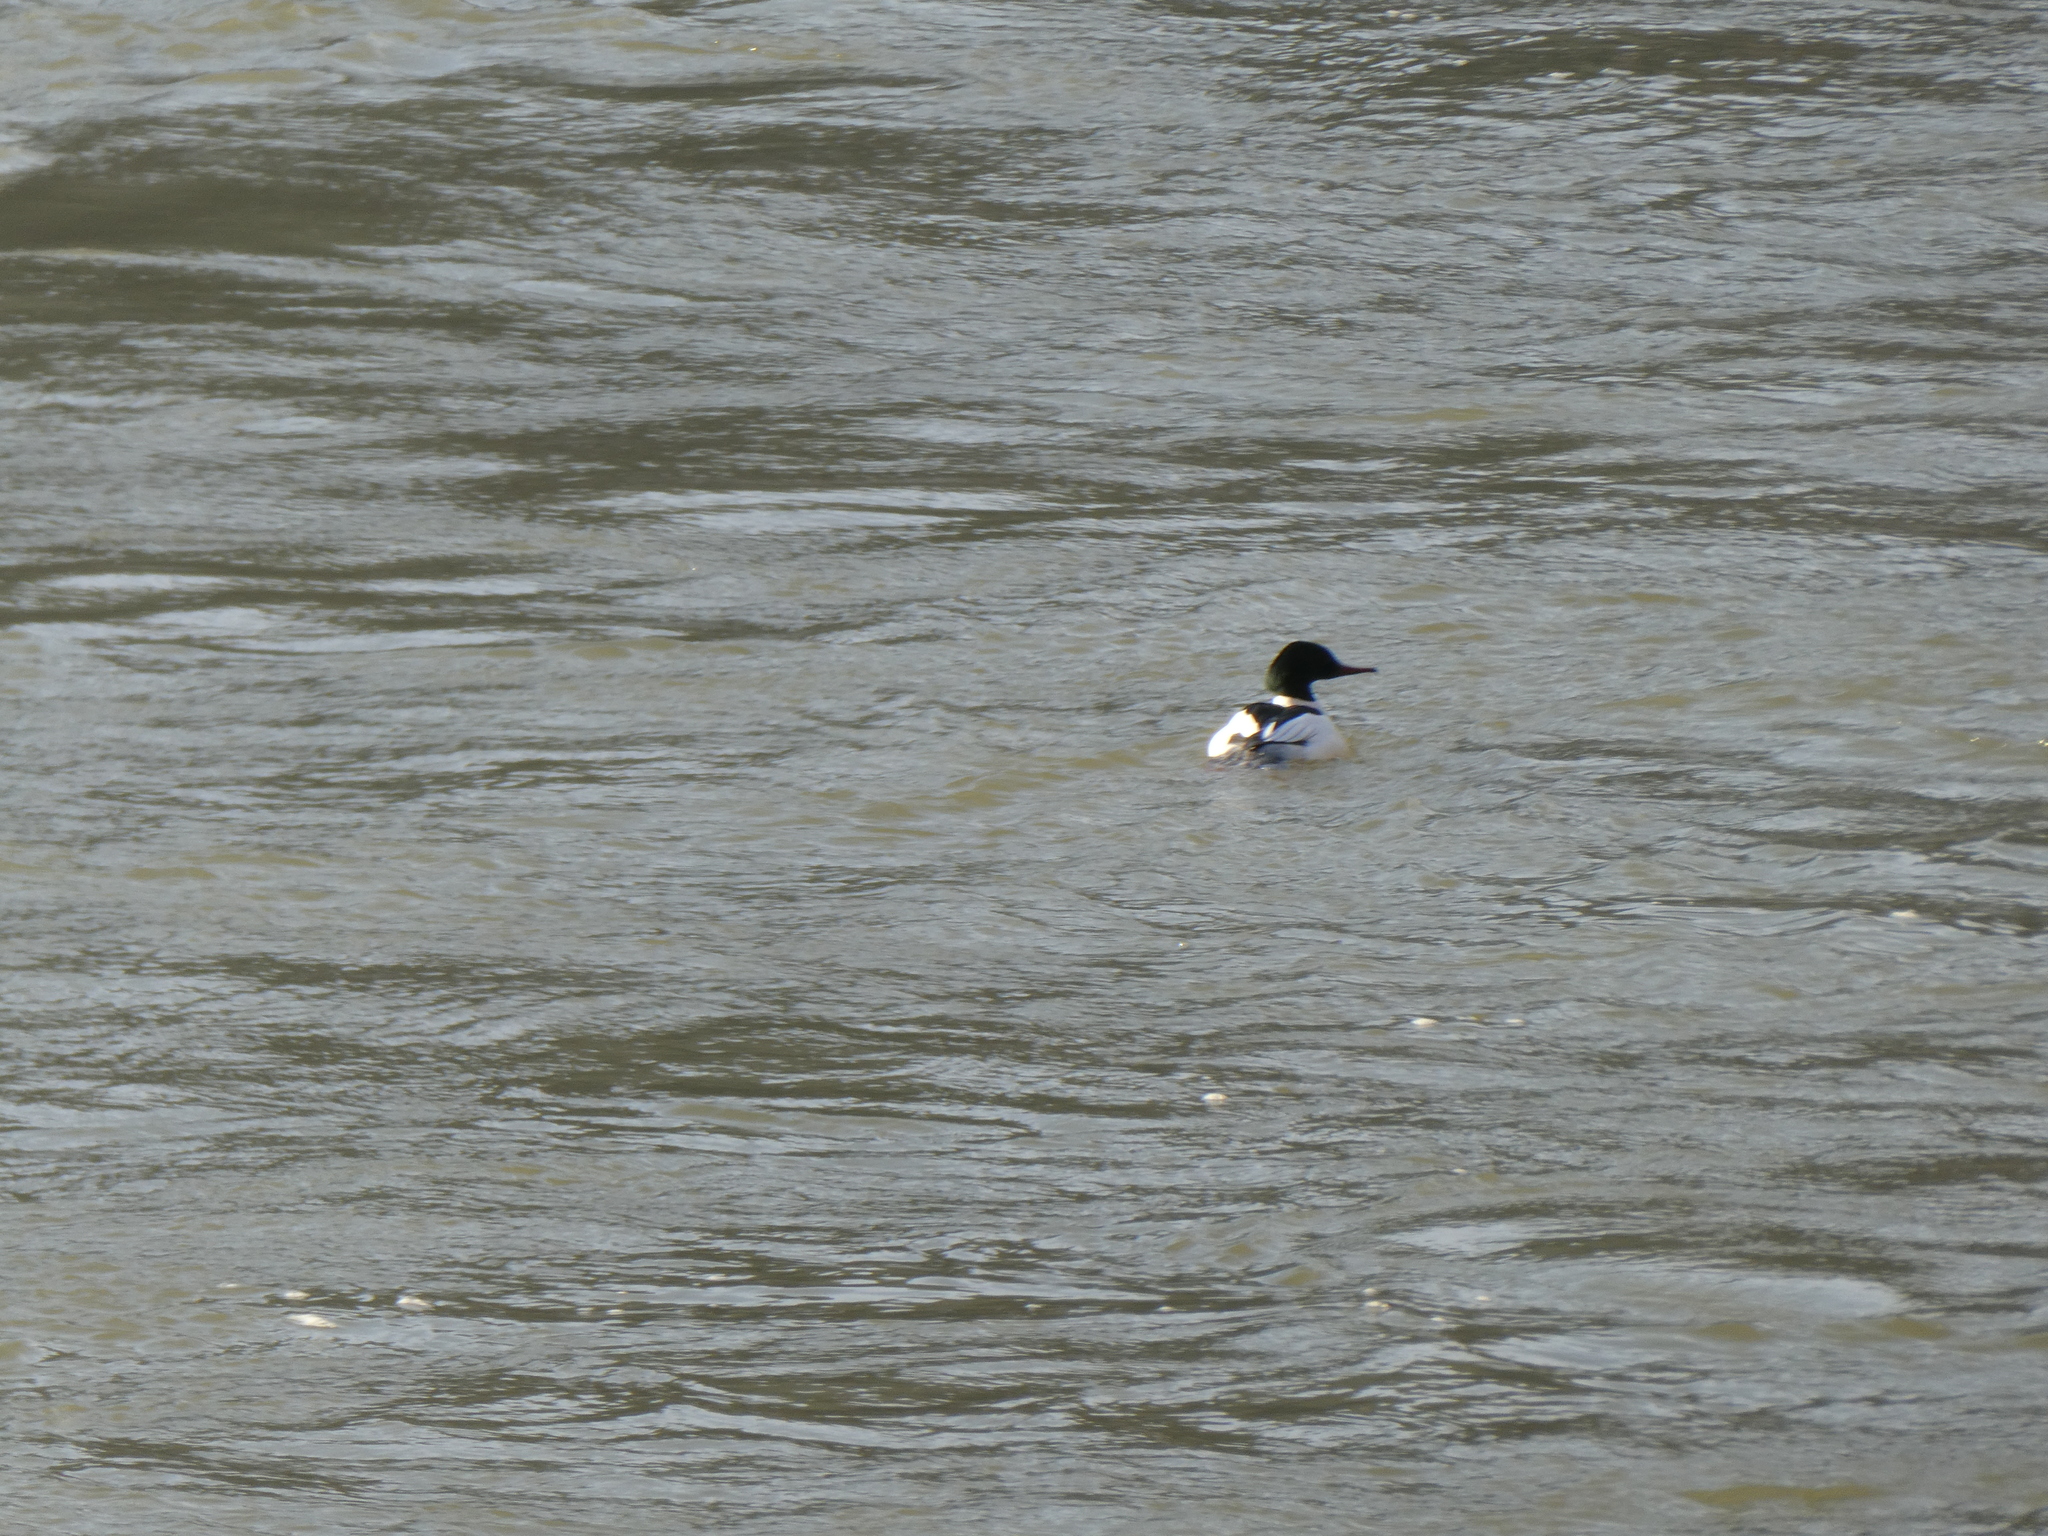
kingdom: Animalia
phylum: Chordata
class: Aves
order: Anseriformes
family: Anatidae
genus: Mergus
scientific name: Mergus merganser
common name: Common merganser
